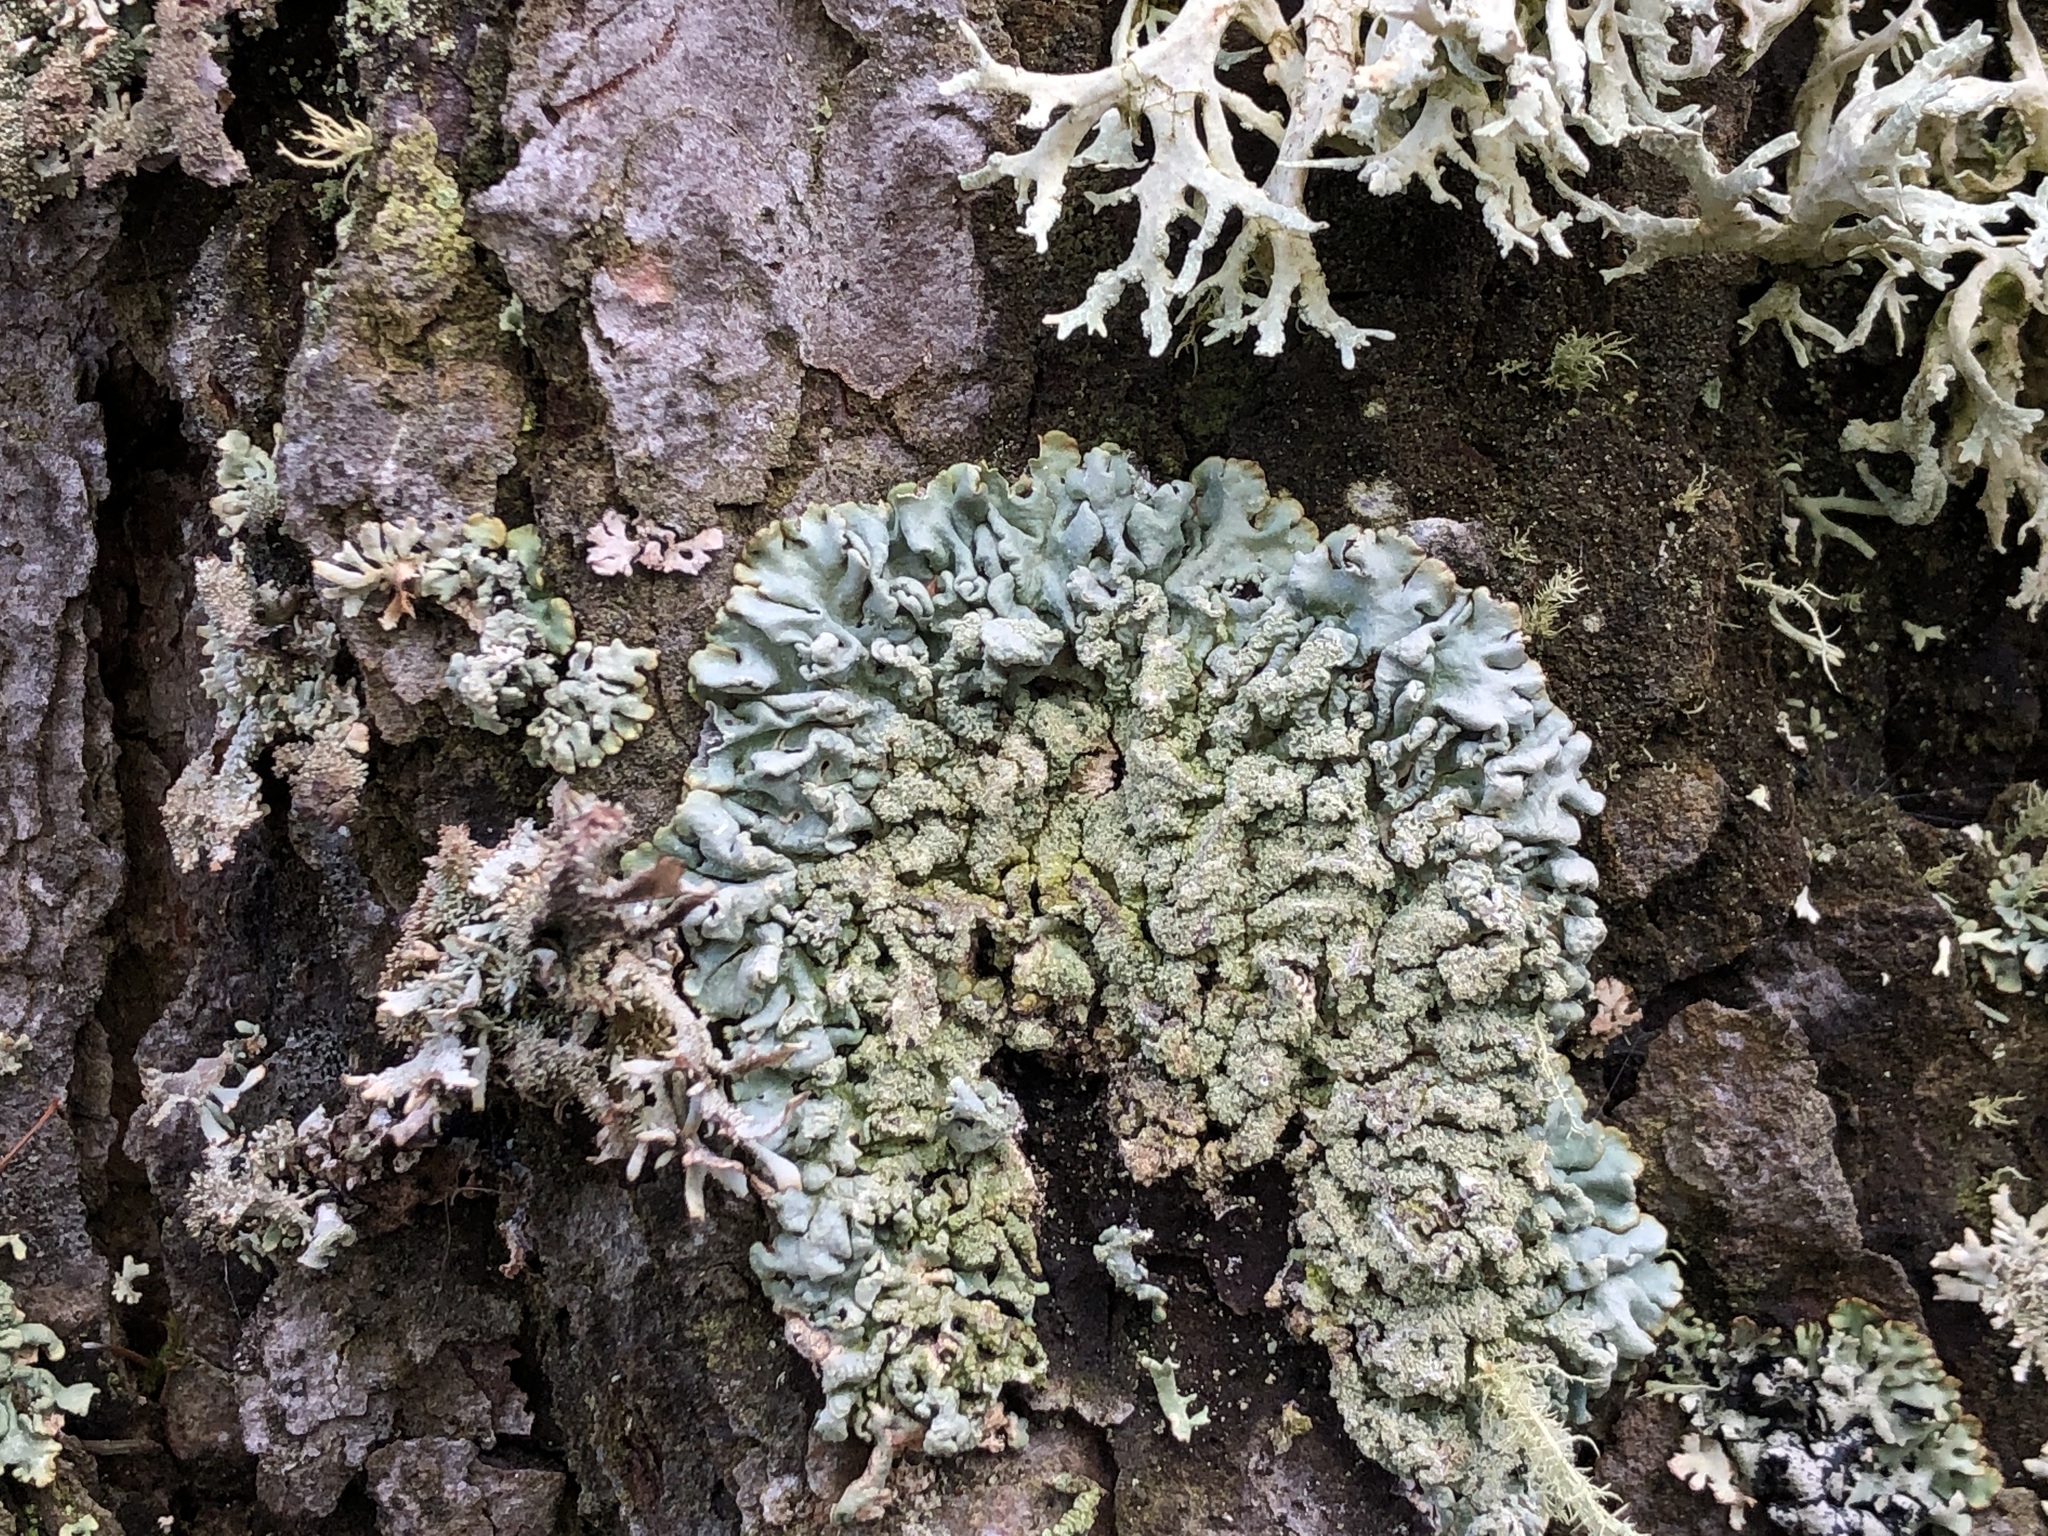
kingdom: Fungi
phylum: Ascomycota
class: Lecanoromycetes
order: Lecanorales
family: Parmeliaceae
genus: Hypogymnia
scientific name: Hypogymnia farinacea
